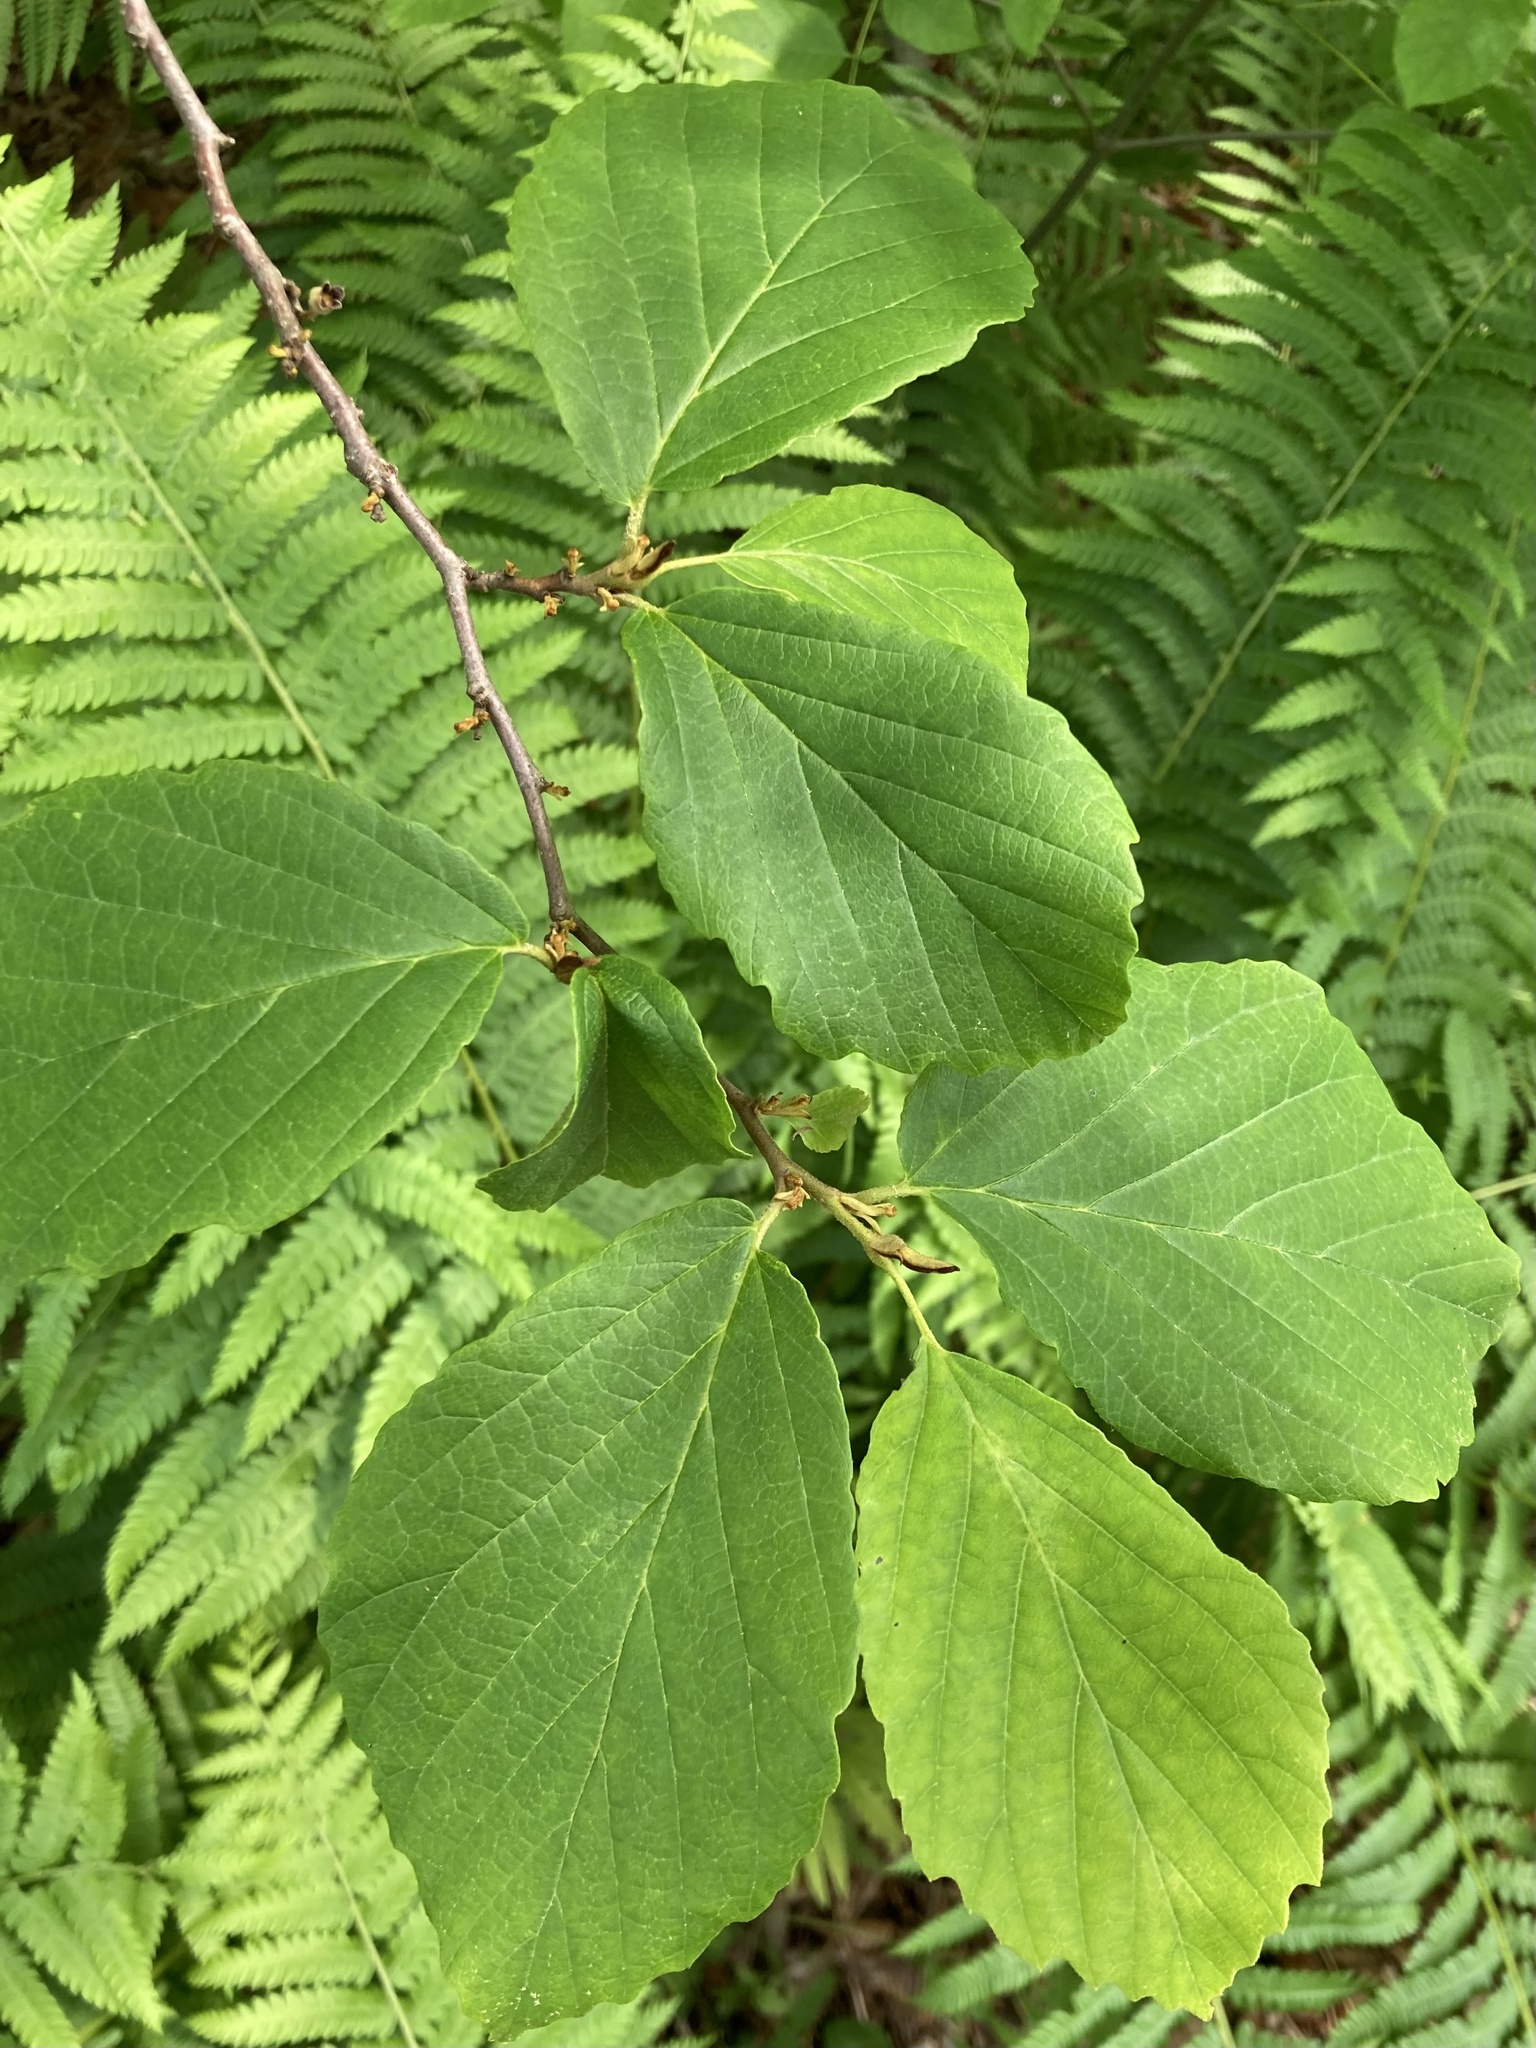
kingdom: Plantae
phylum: Tracheophyta
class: Magnoliopsida
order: Saxifragales
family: Hamamelidaceae
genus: Hamamelis
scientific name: Hamamelis virginiana
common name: Witch-hazel
